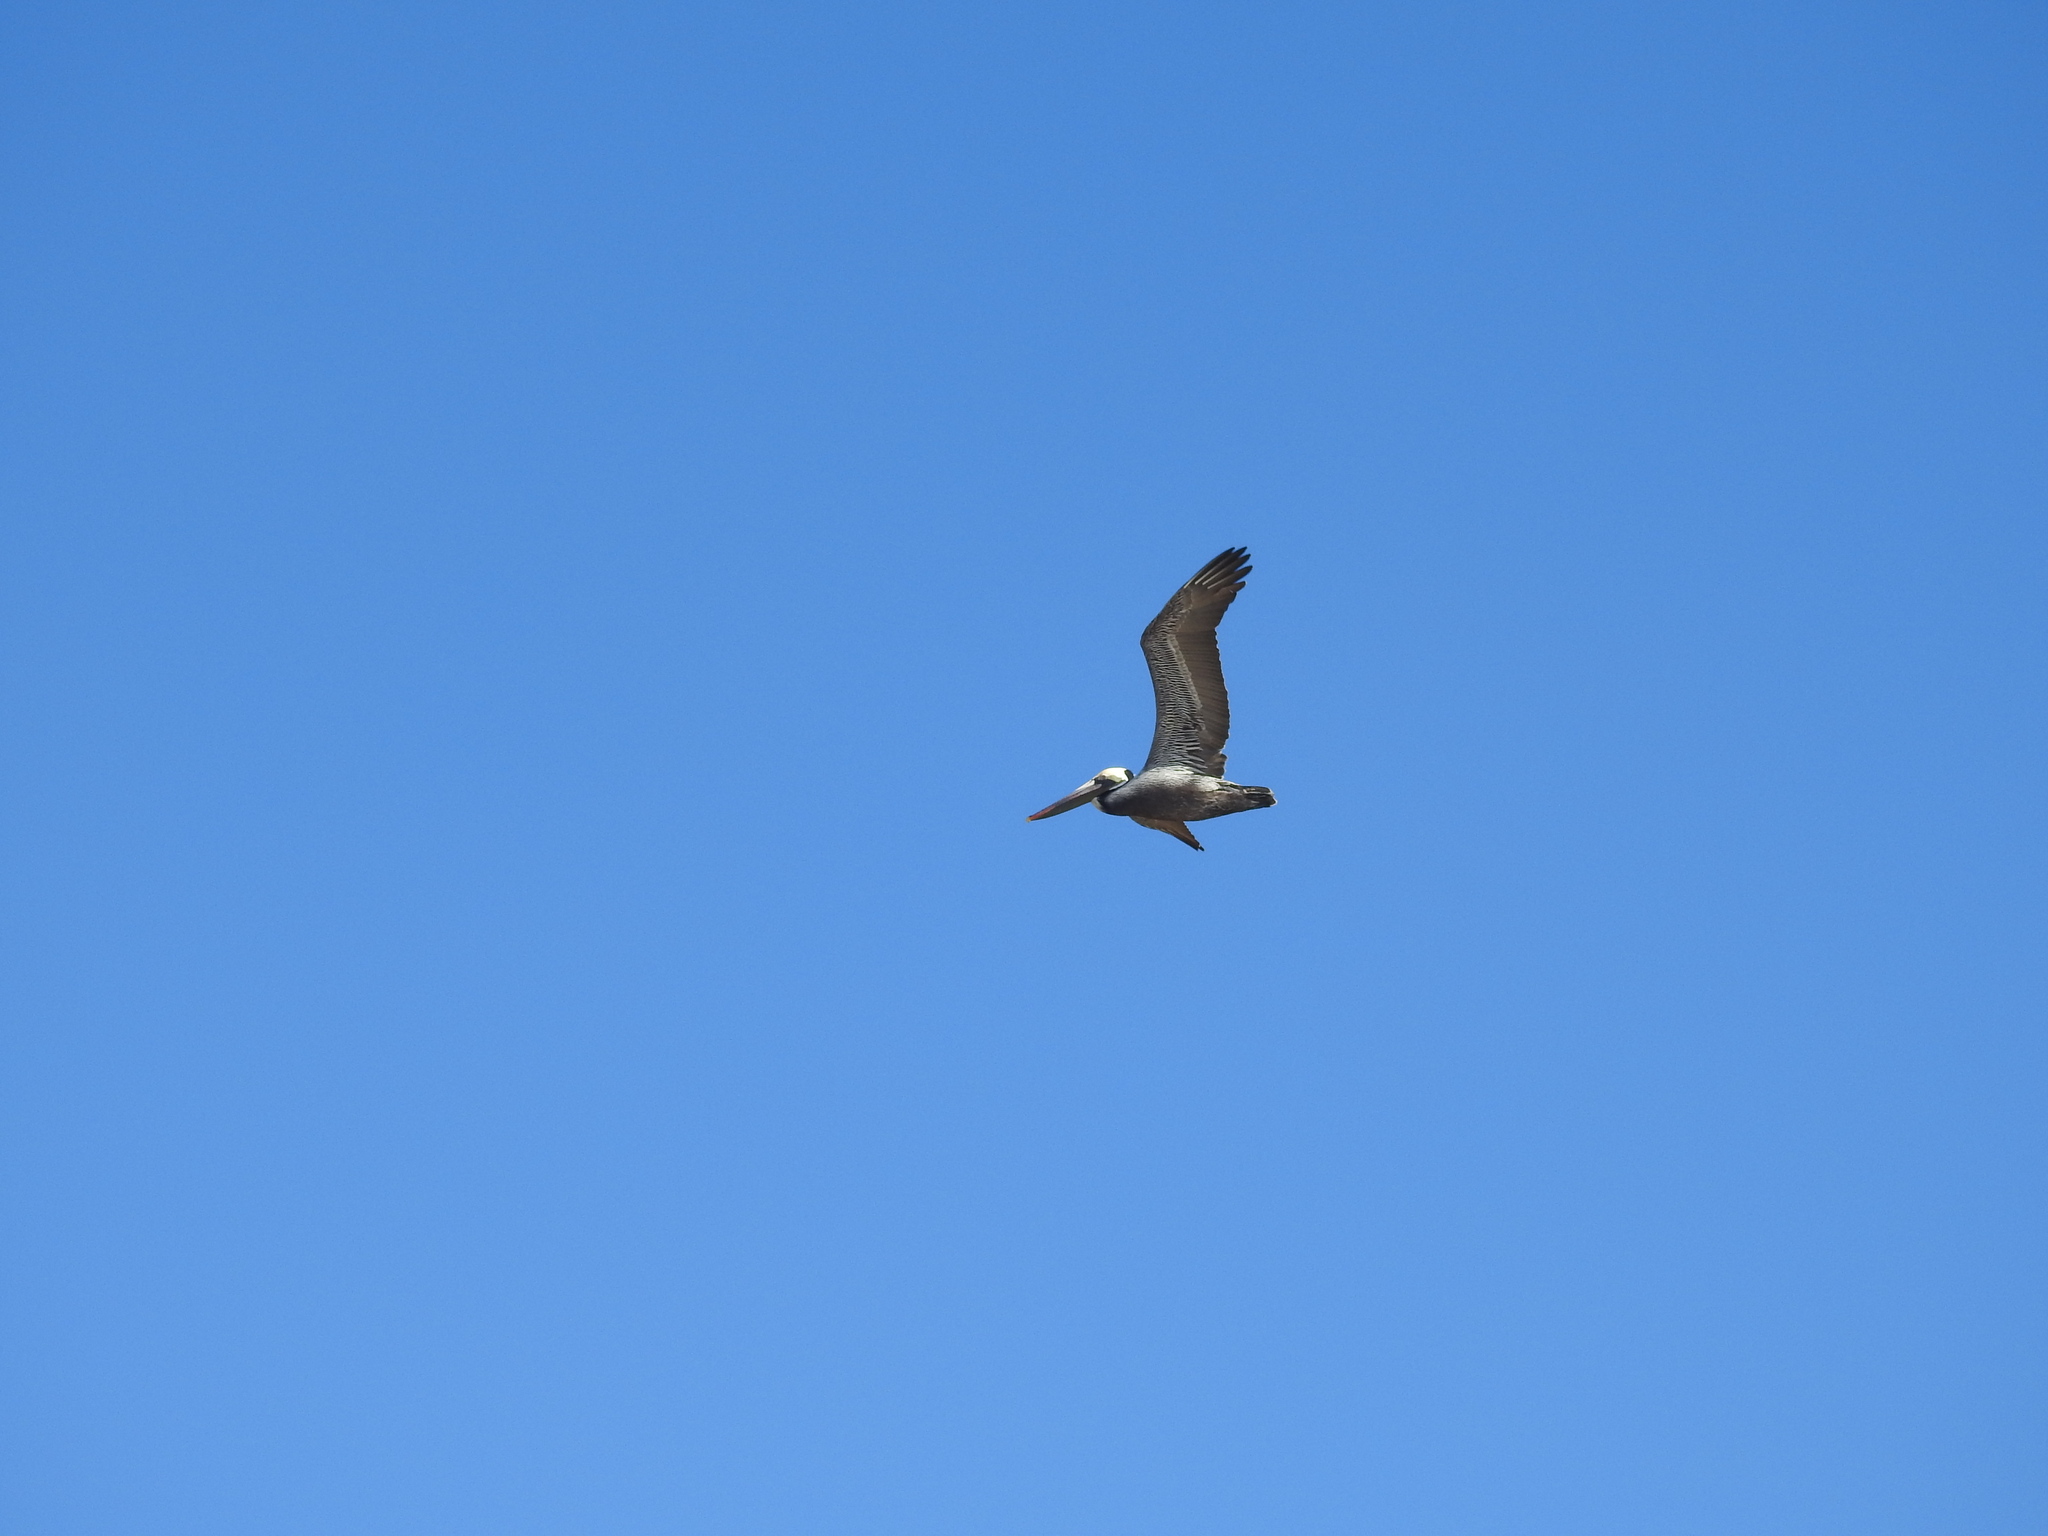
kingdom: Animalia
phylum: Chordata
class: Aves
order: Pelecaniformes
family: Pelecanidae
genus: Pelecanus
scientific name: Pelecanus occidentalis
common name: Brown pelican
